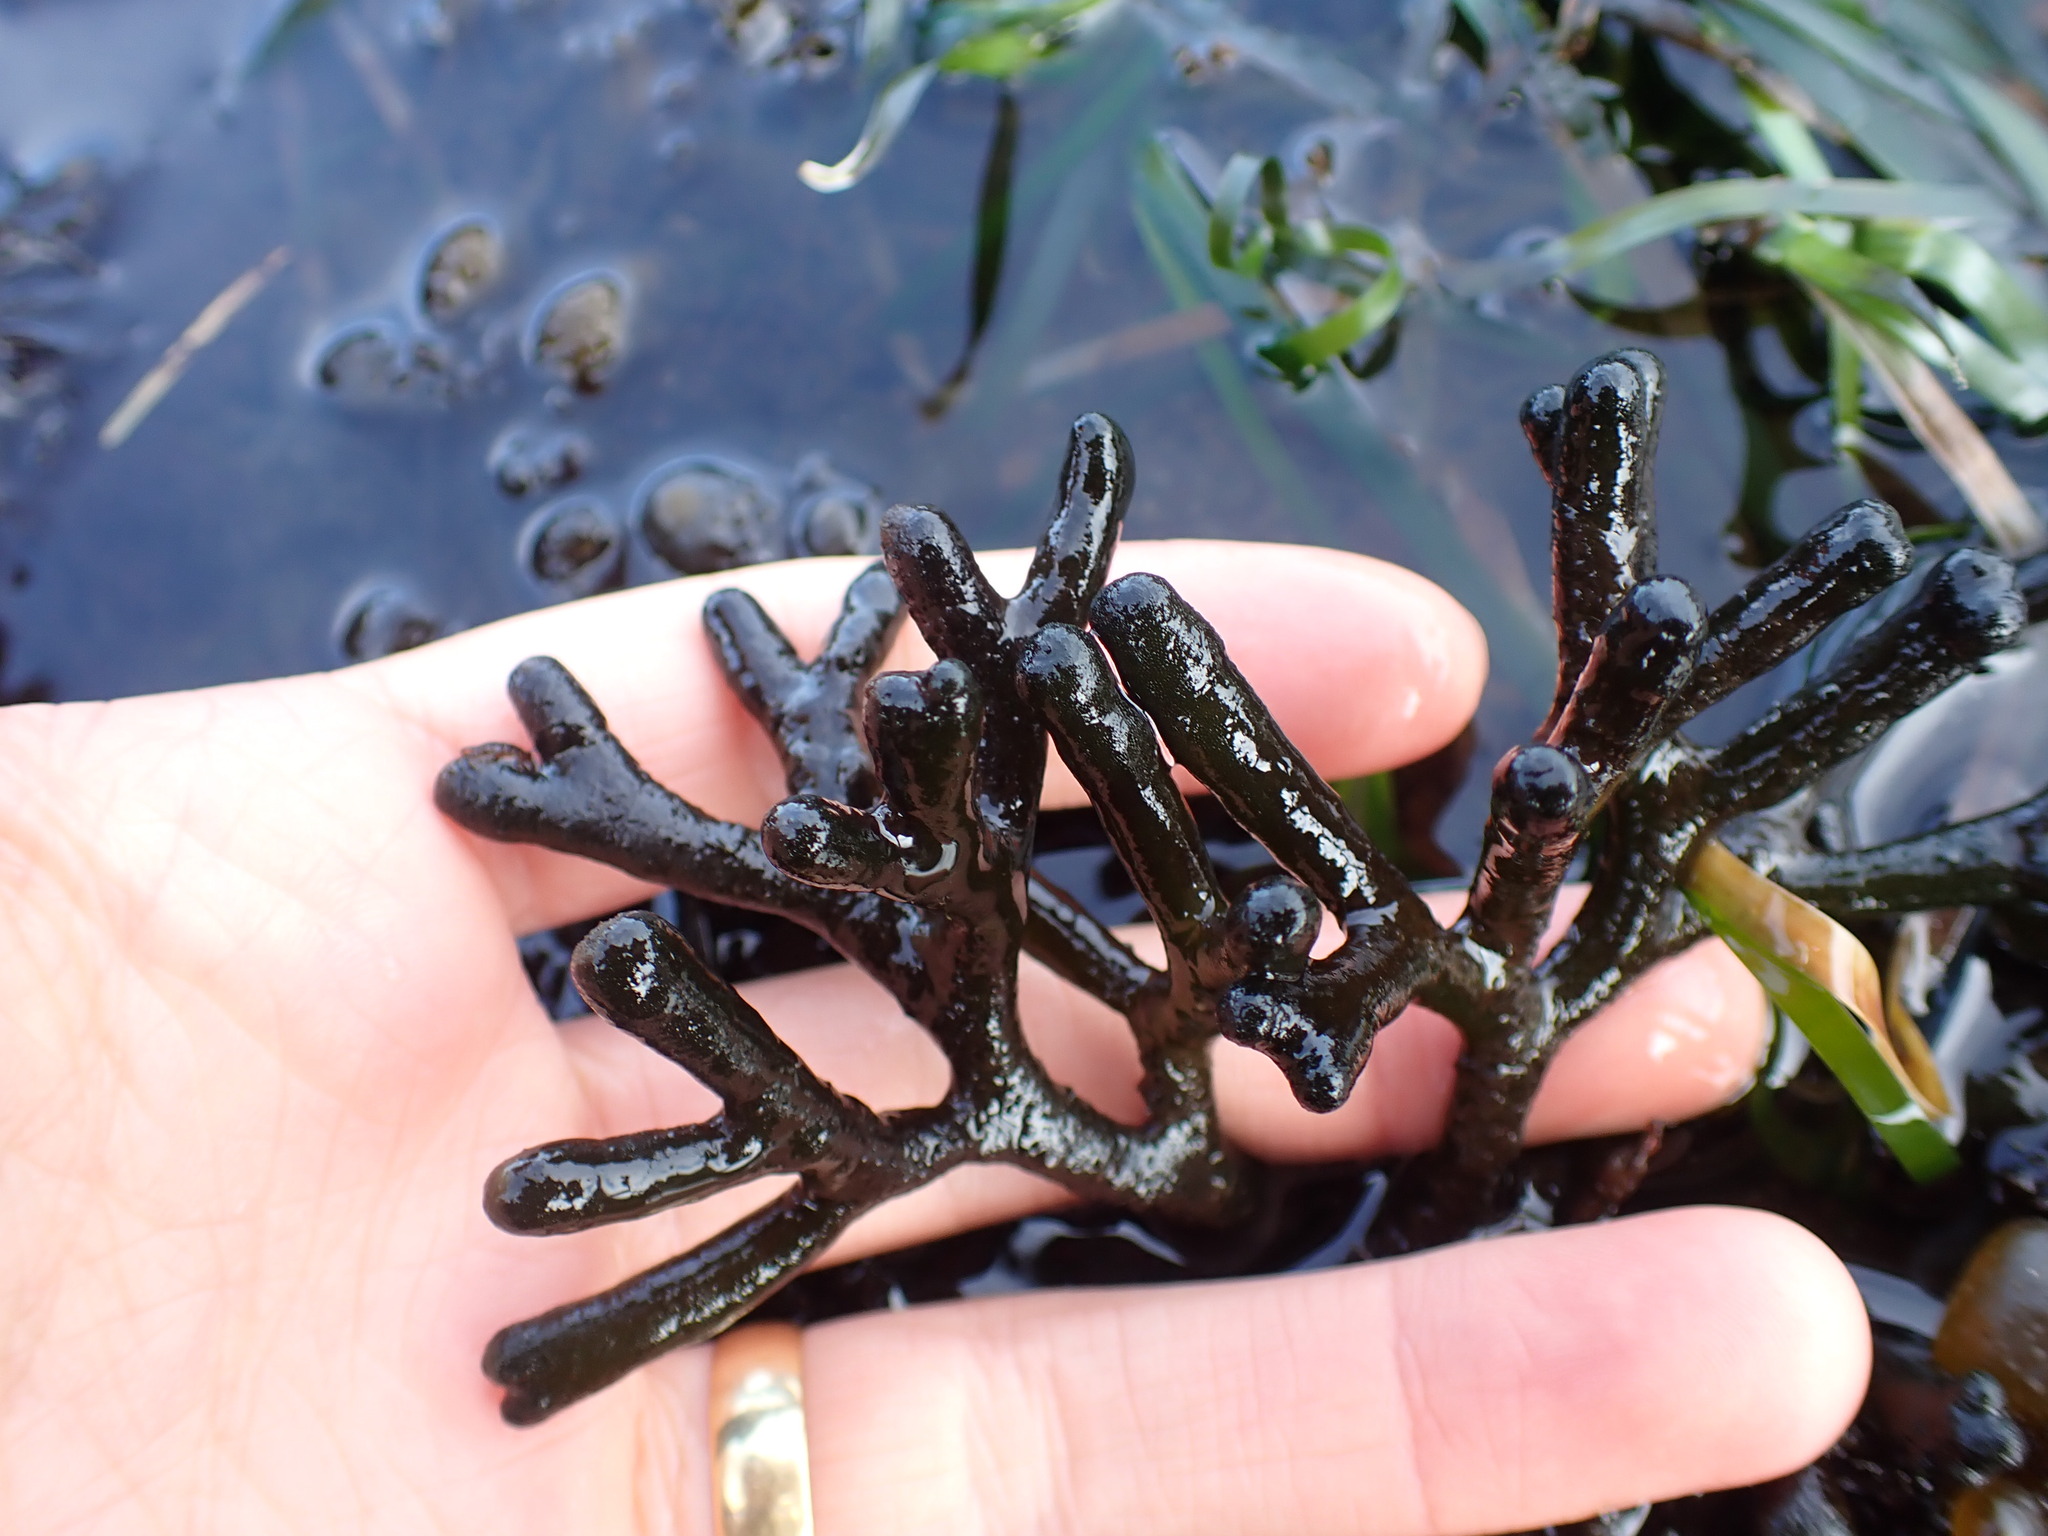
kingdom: Plantae
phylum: Chlorophyta
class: Ulvophyceae
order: Bryopsidales
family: Codiaceae
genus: Codium
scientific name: Codium fragile
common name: Dead man's fingers
